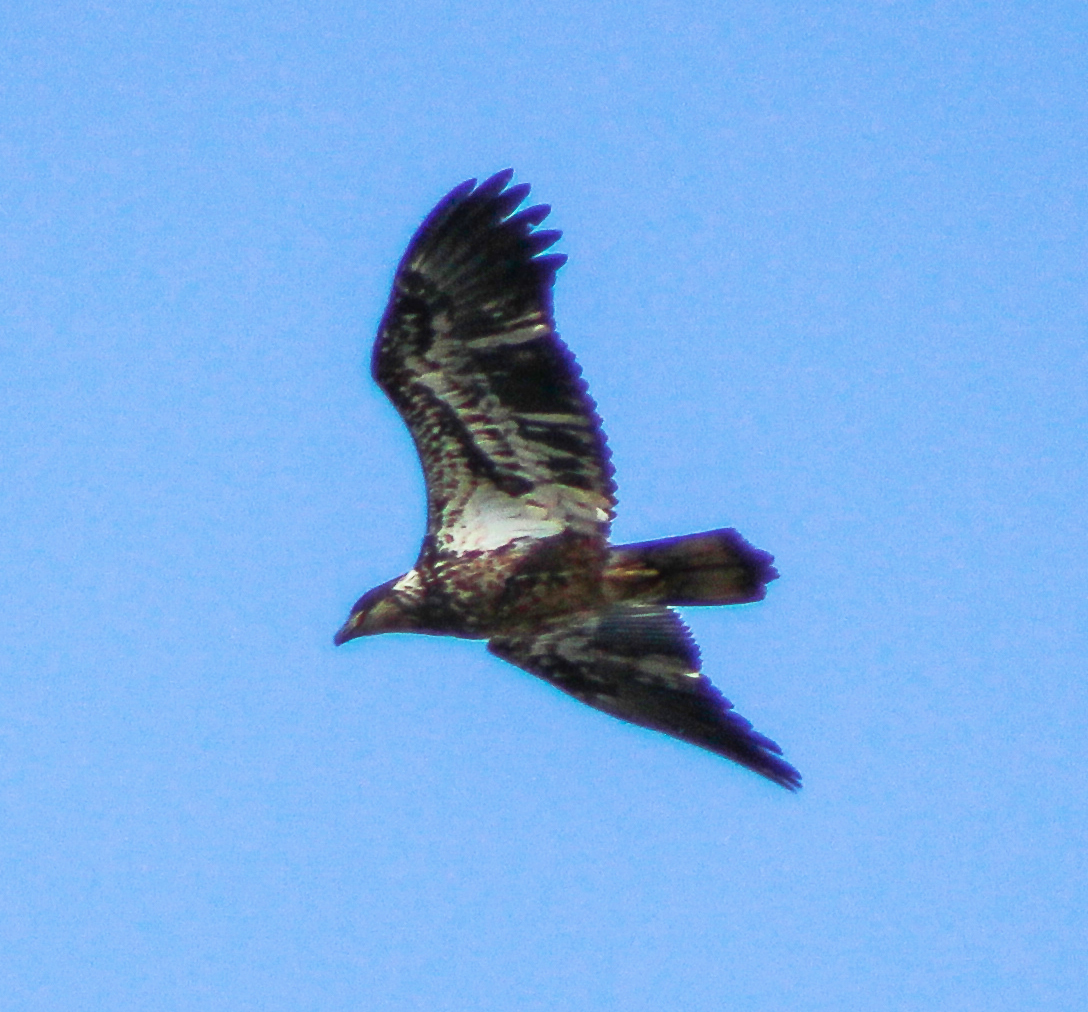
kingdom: Animalia
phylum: Chordata
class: Aves
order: Accipitriformes
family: Accipitridae
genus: Haliaeetus
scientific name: Haliaeetus leucocephalus
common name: Bald eagle
